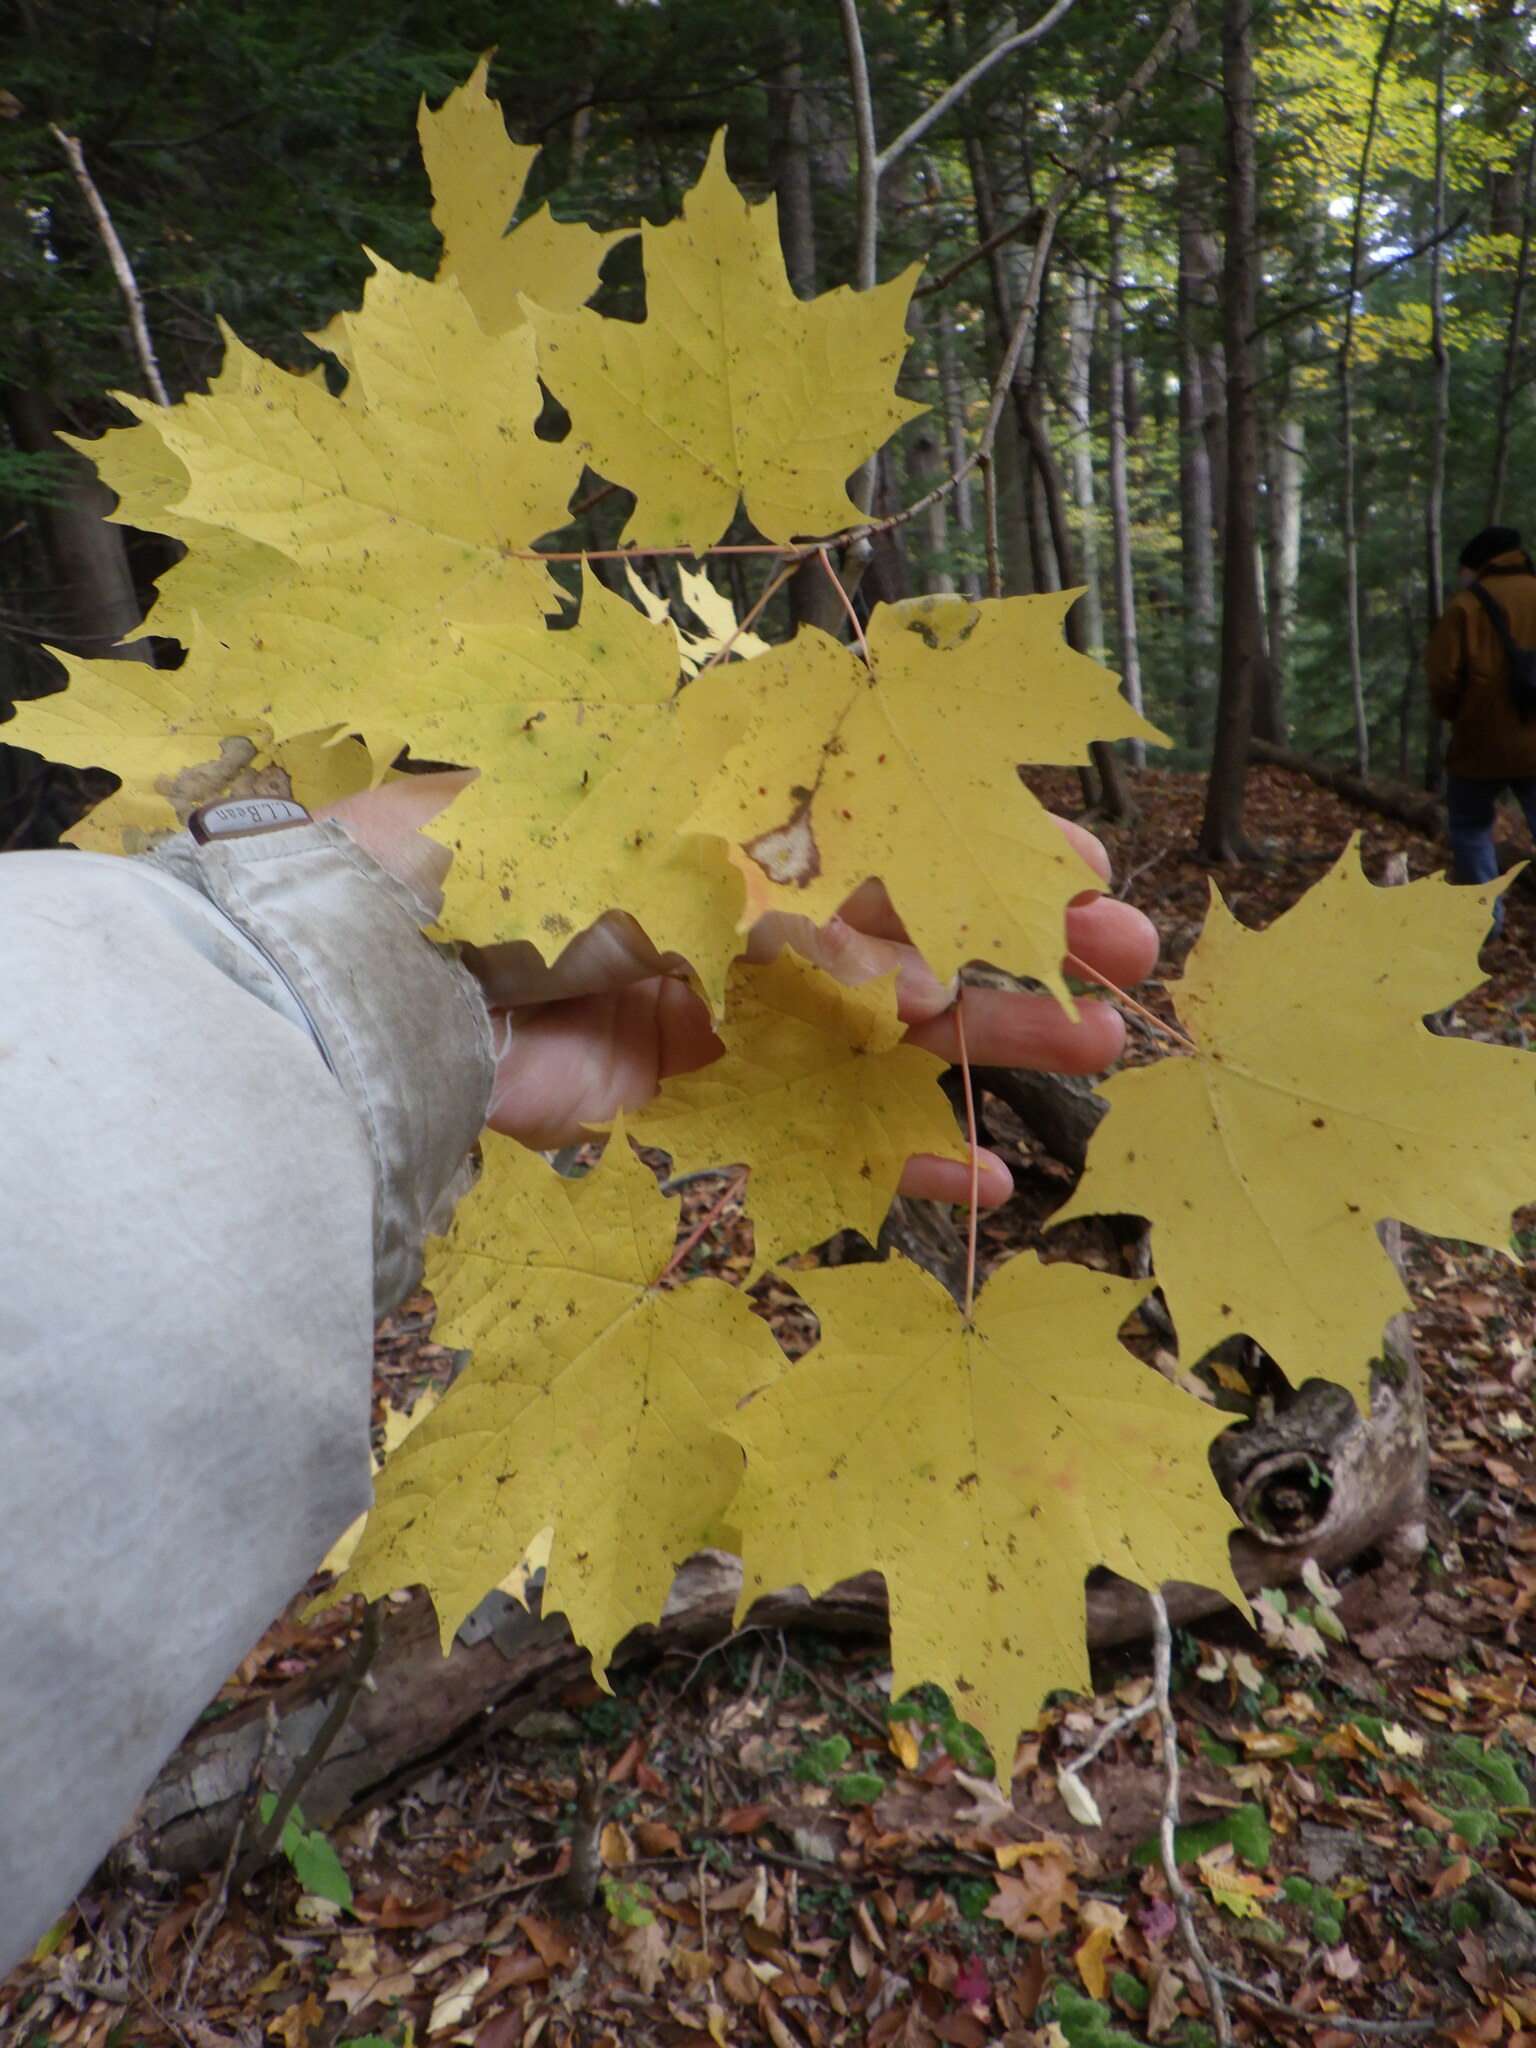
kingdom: Plantae
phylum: Tracheophyta
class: Magnoliopsida
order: Sapindales
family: Sapindaceae
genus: Acer
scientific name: Acer saccharum
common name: Sugar maple
